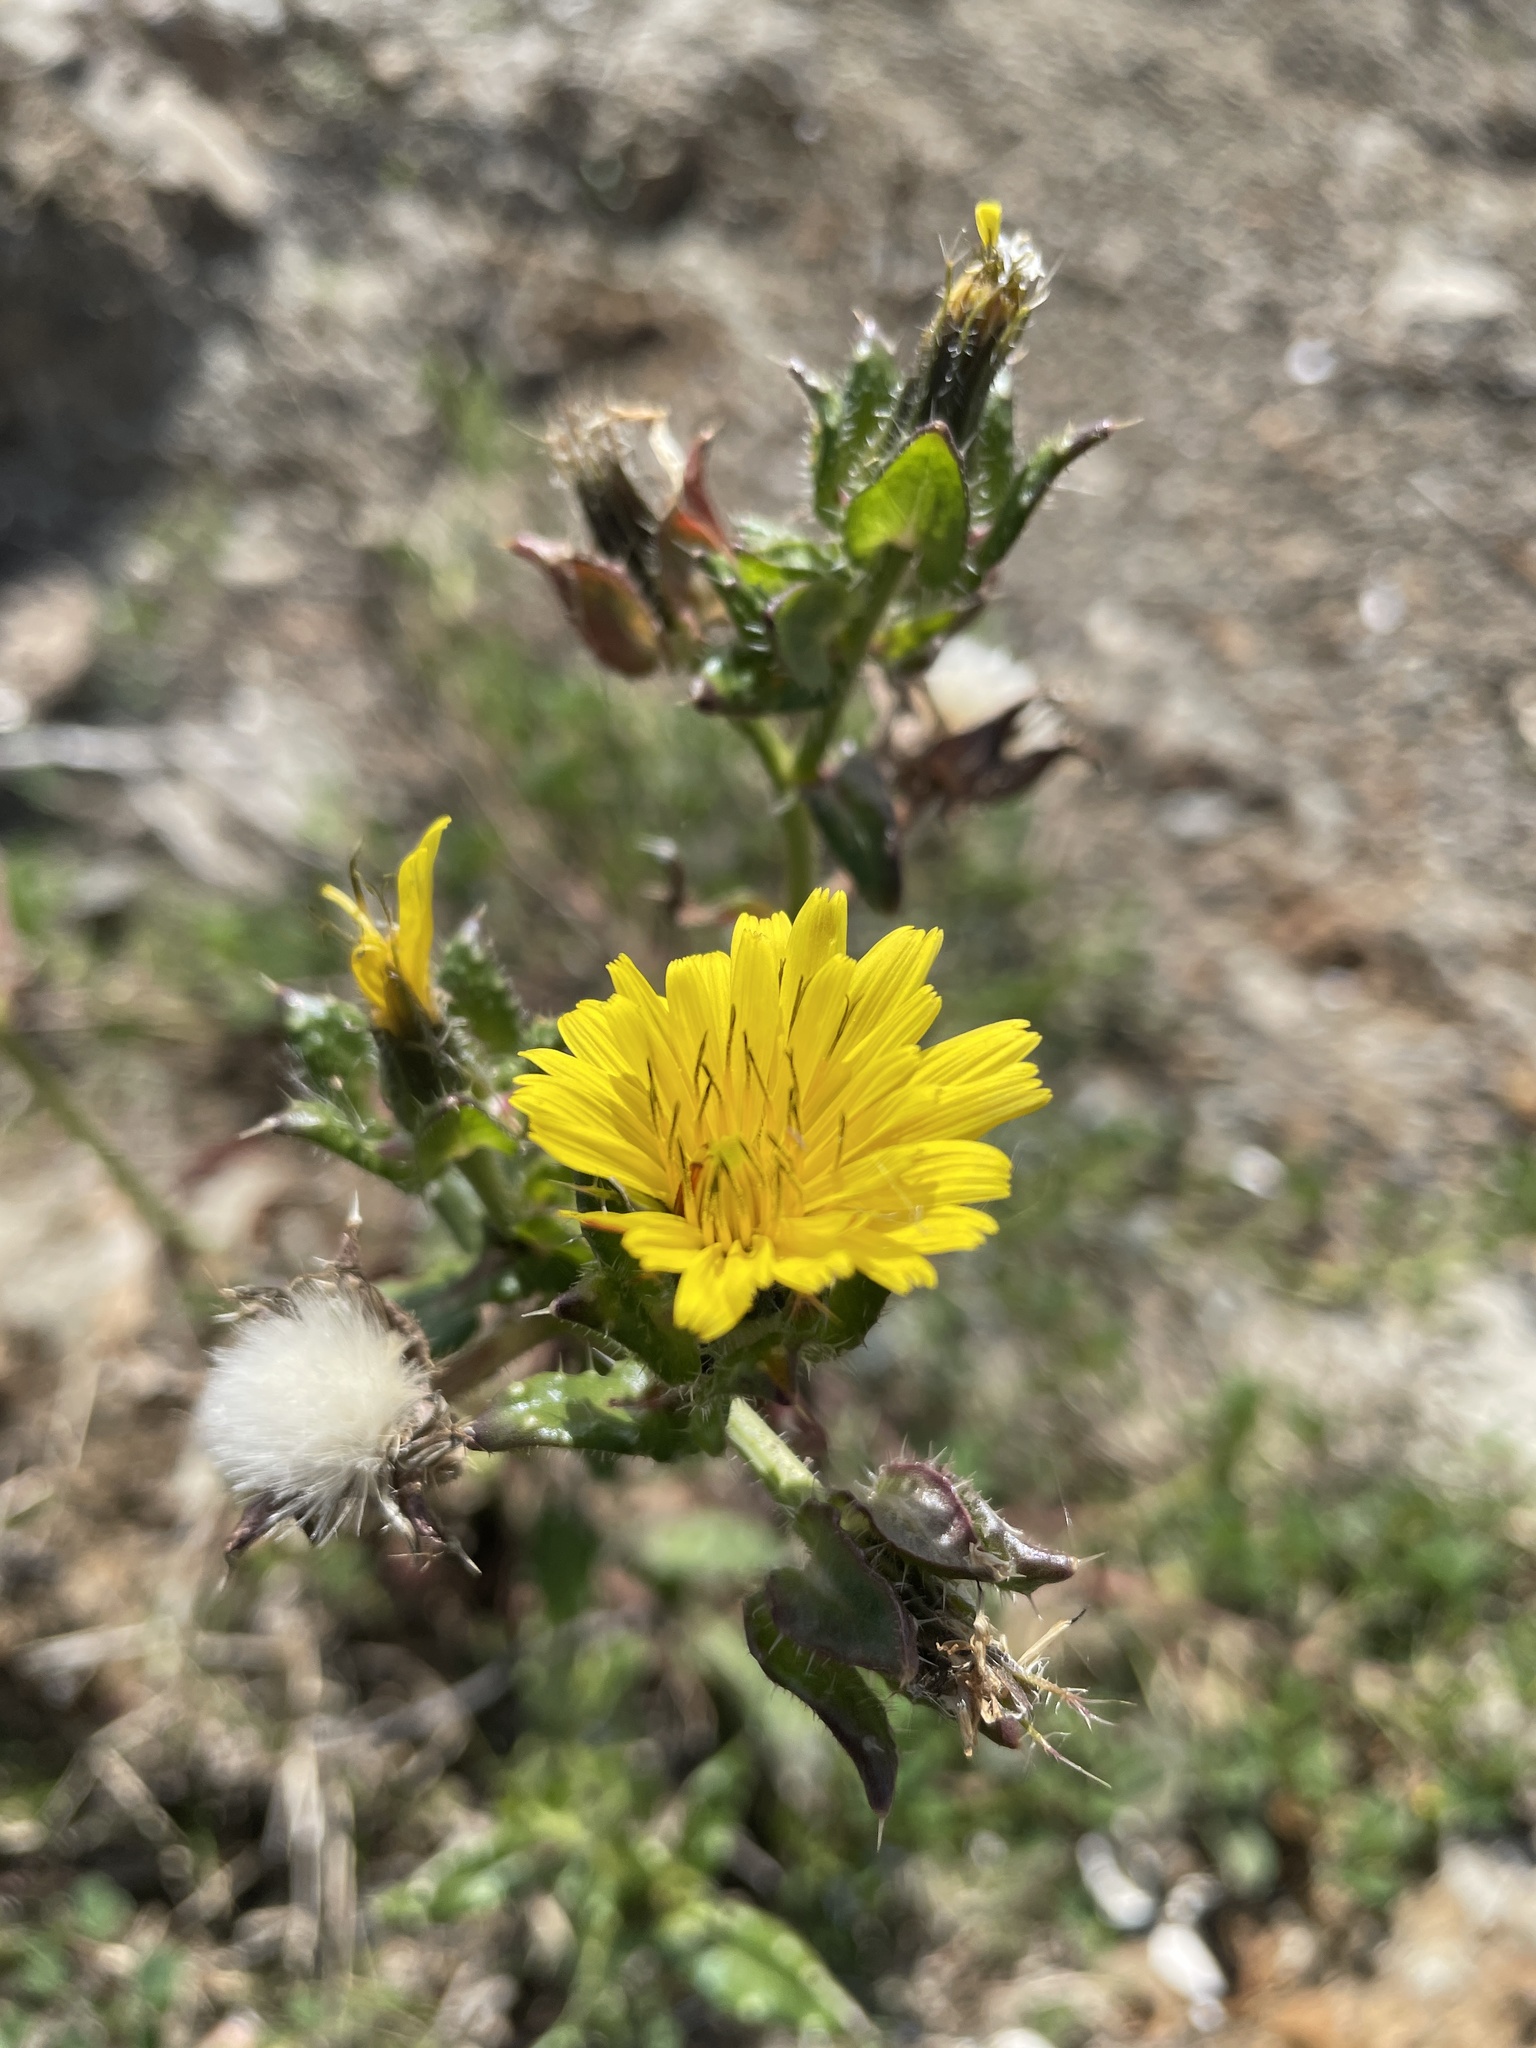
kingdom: Plantae
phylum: Tracheophyta
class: Magnoliopsida
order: Asterales
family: Asteraceae
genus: Helminthotheca
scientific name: Helminthotheca echioides
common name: Ox-tongue
